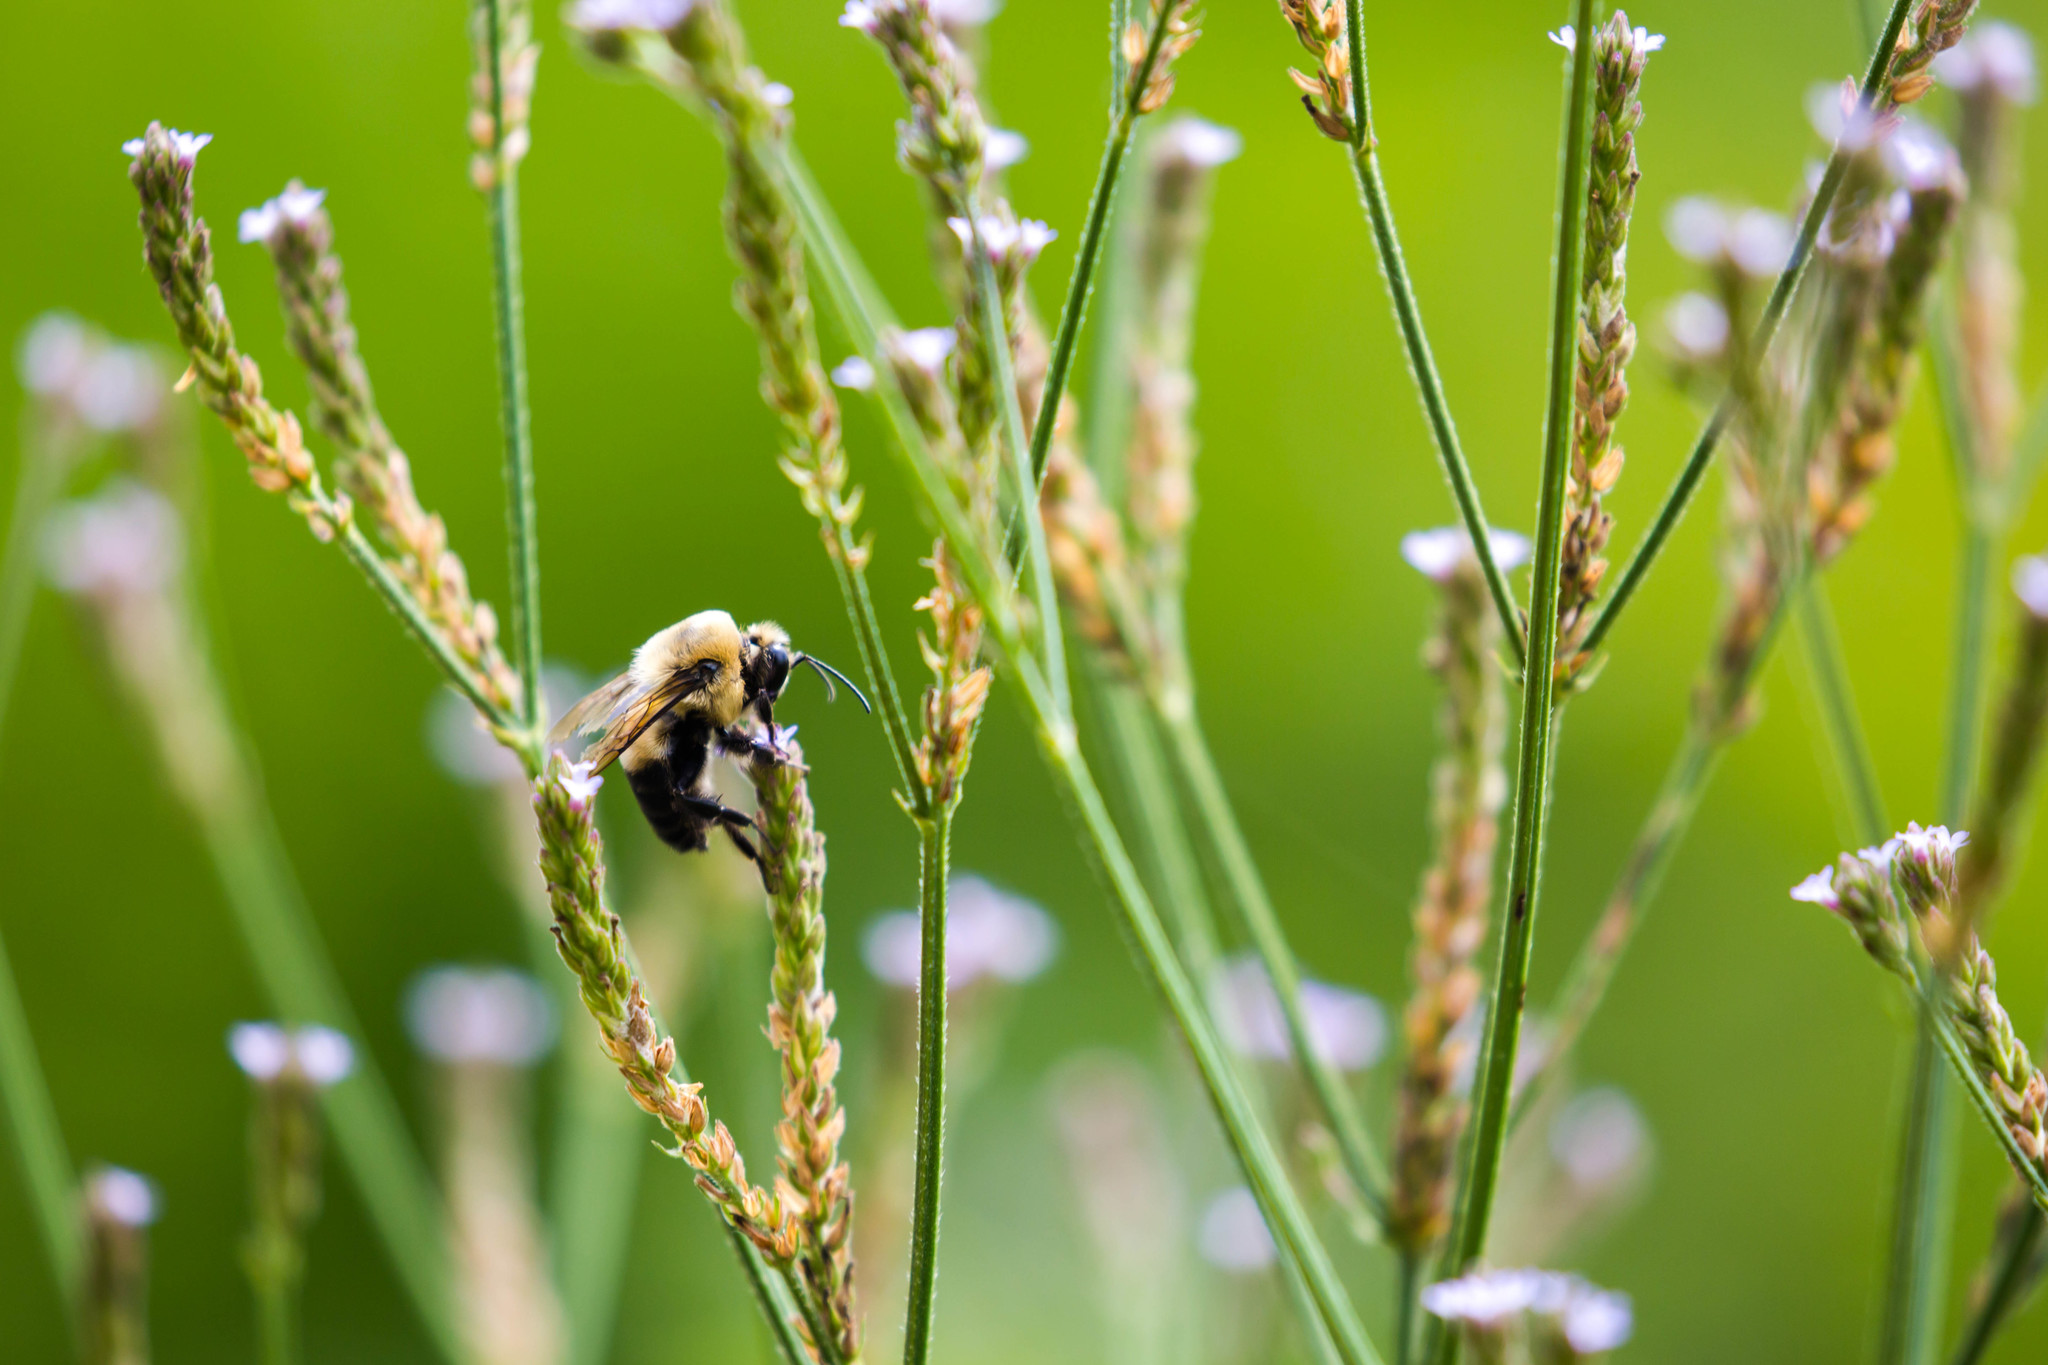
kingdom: Animalia
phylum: Arthropoda
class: Insecta
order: Hymenoptera
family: Apidae
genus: Bombus
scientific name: Bombus griseocollis
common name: Brown-belted bumble bee
